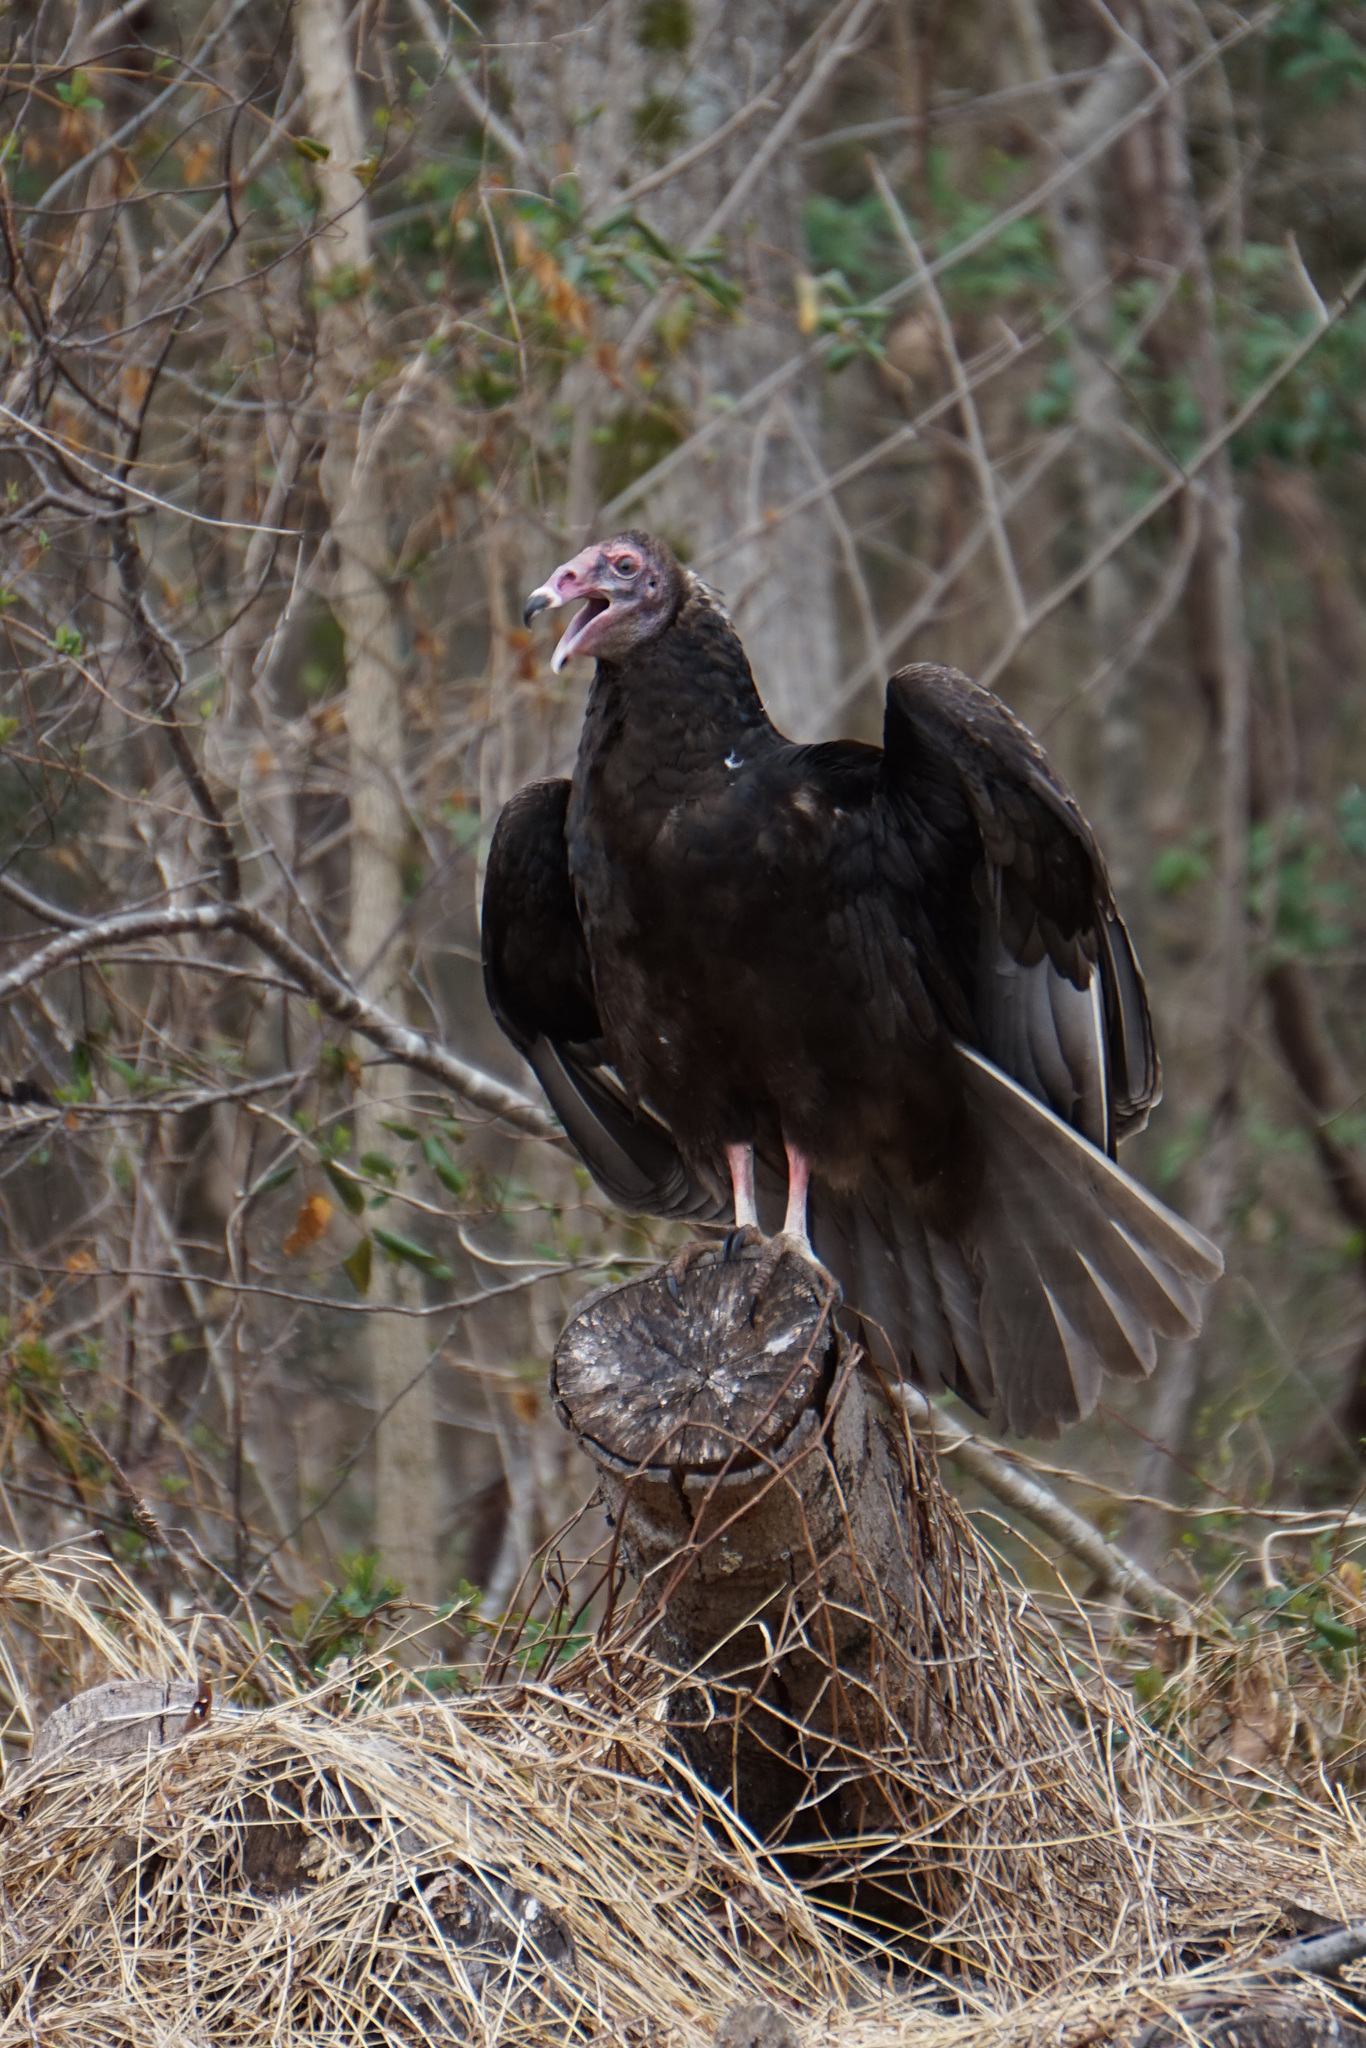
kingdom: Animalia
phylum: Chordata
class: Aves
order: Accipitriformes
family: Cathartidae
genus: Cathartes
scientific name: Cathartes aura
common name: Turkey vulture
